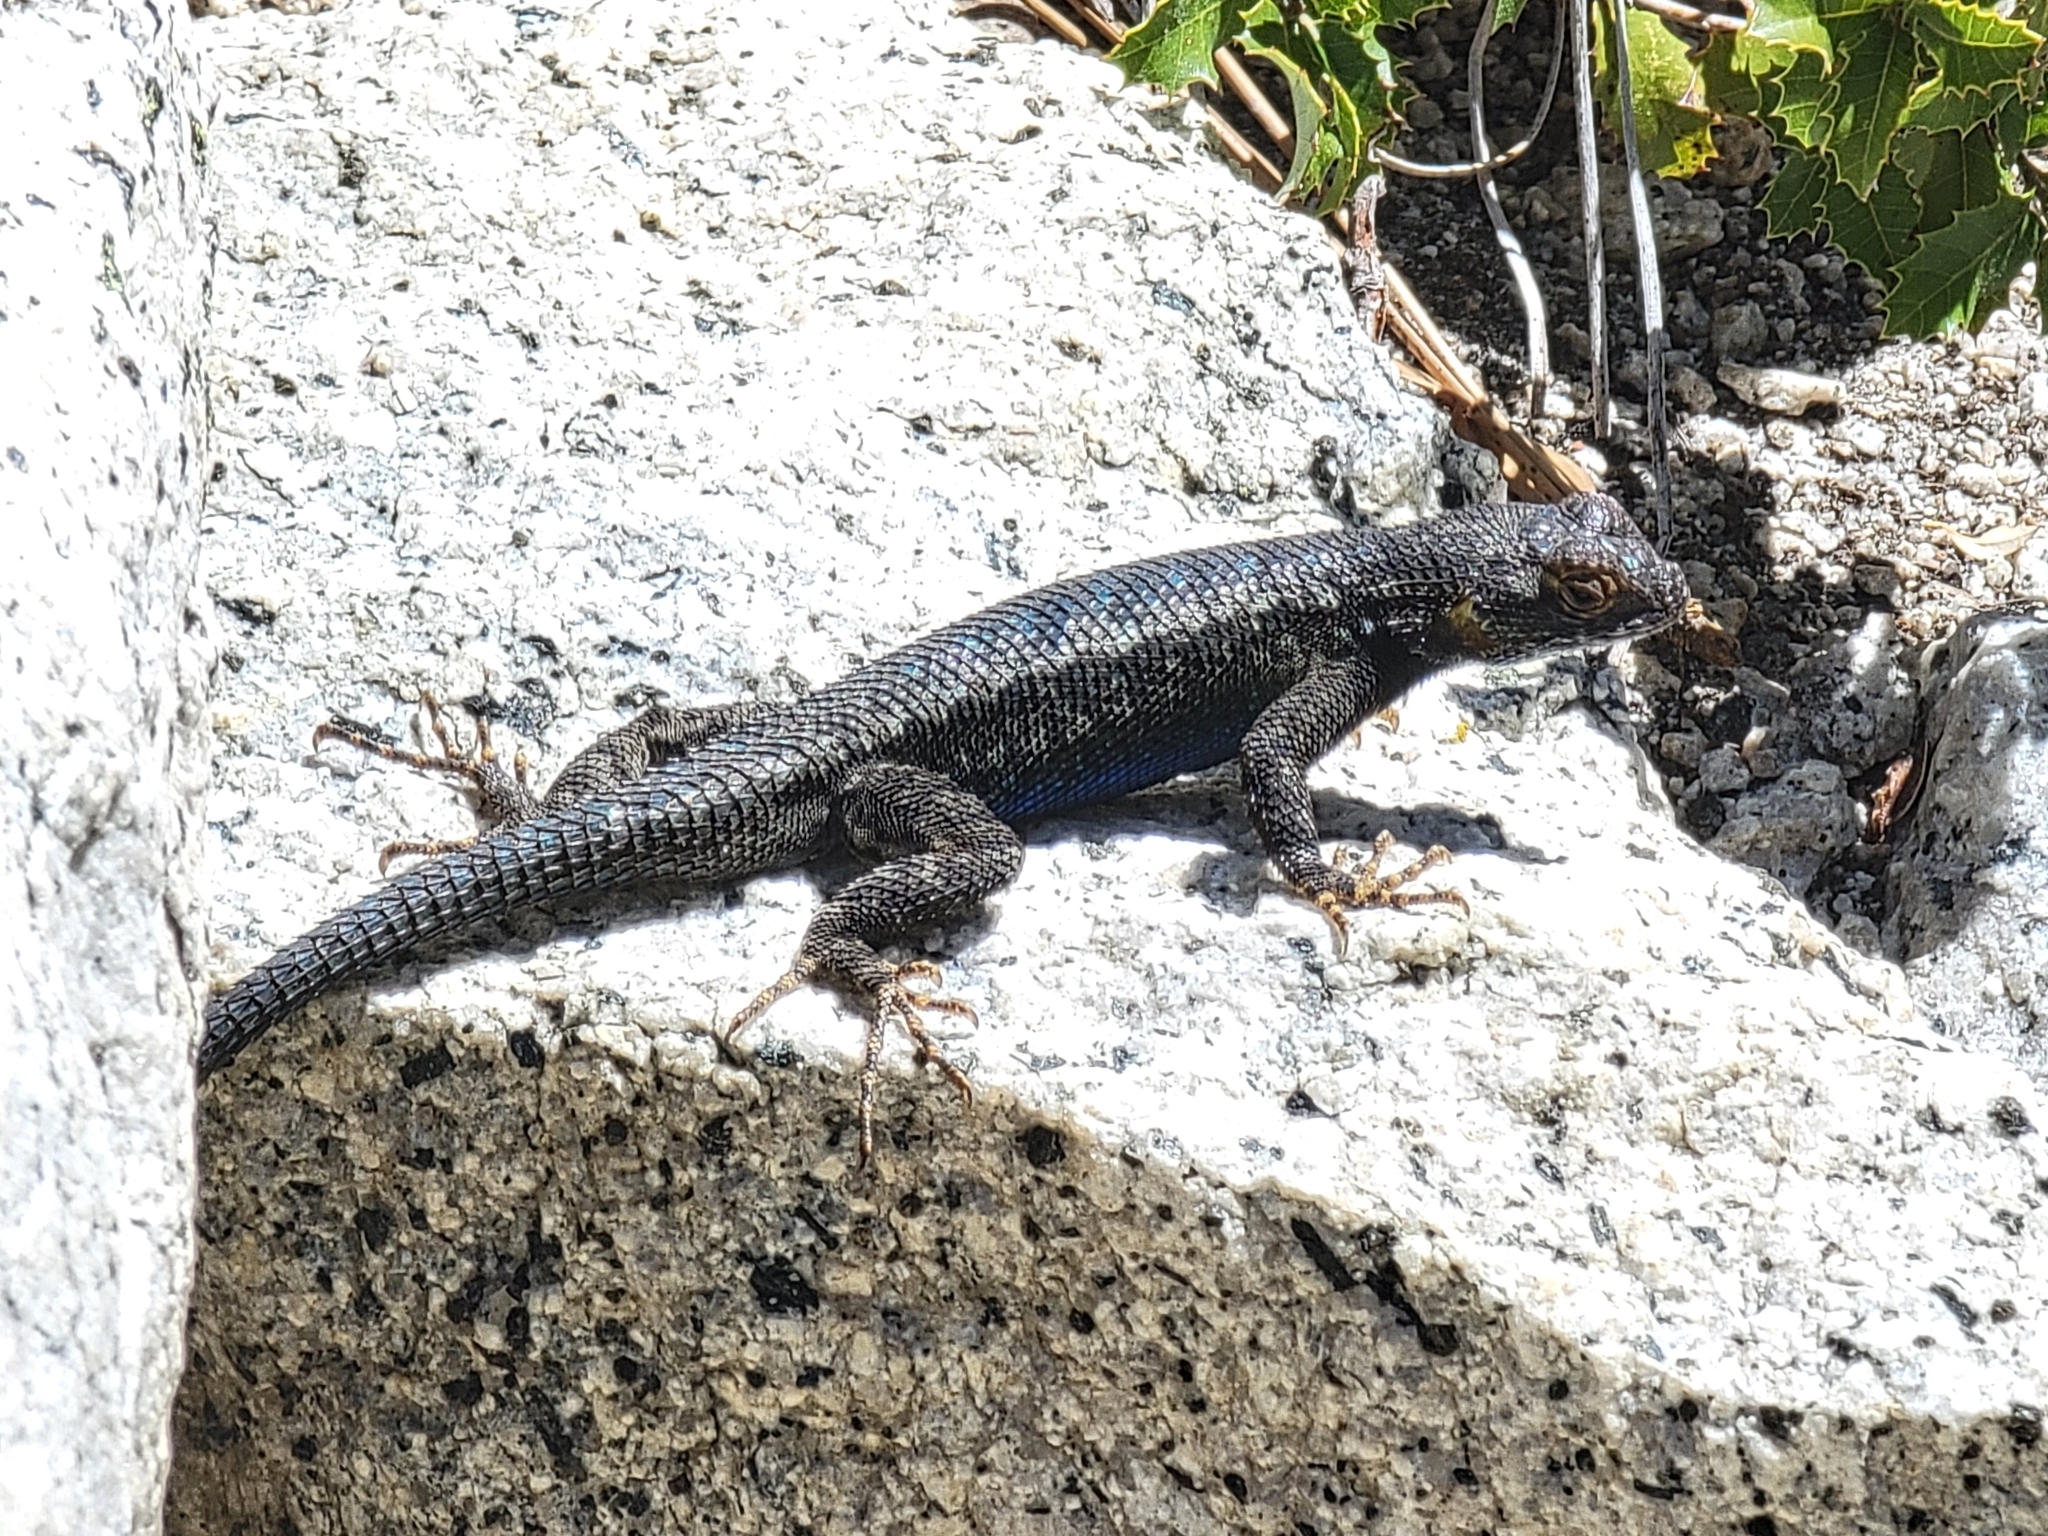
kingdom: Animalia
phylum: Chordata
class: Squamata
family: Phrynosomatidae
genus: Sceloporus
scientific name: Sceloporus occidentalis
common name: Western fence lizard
